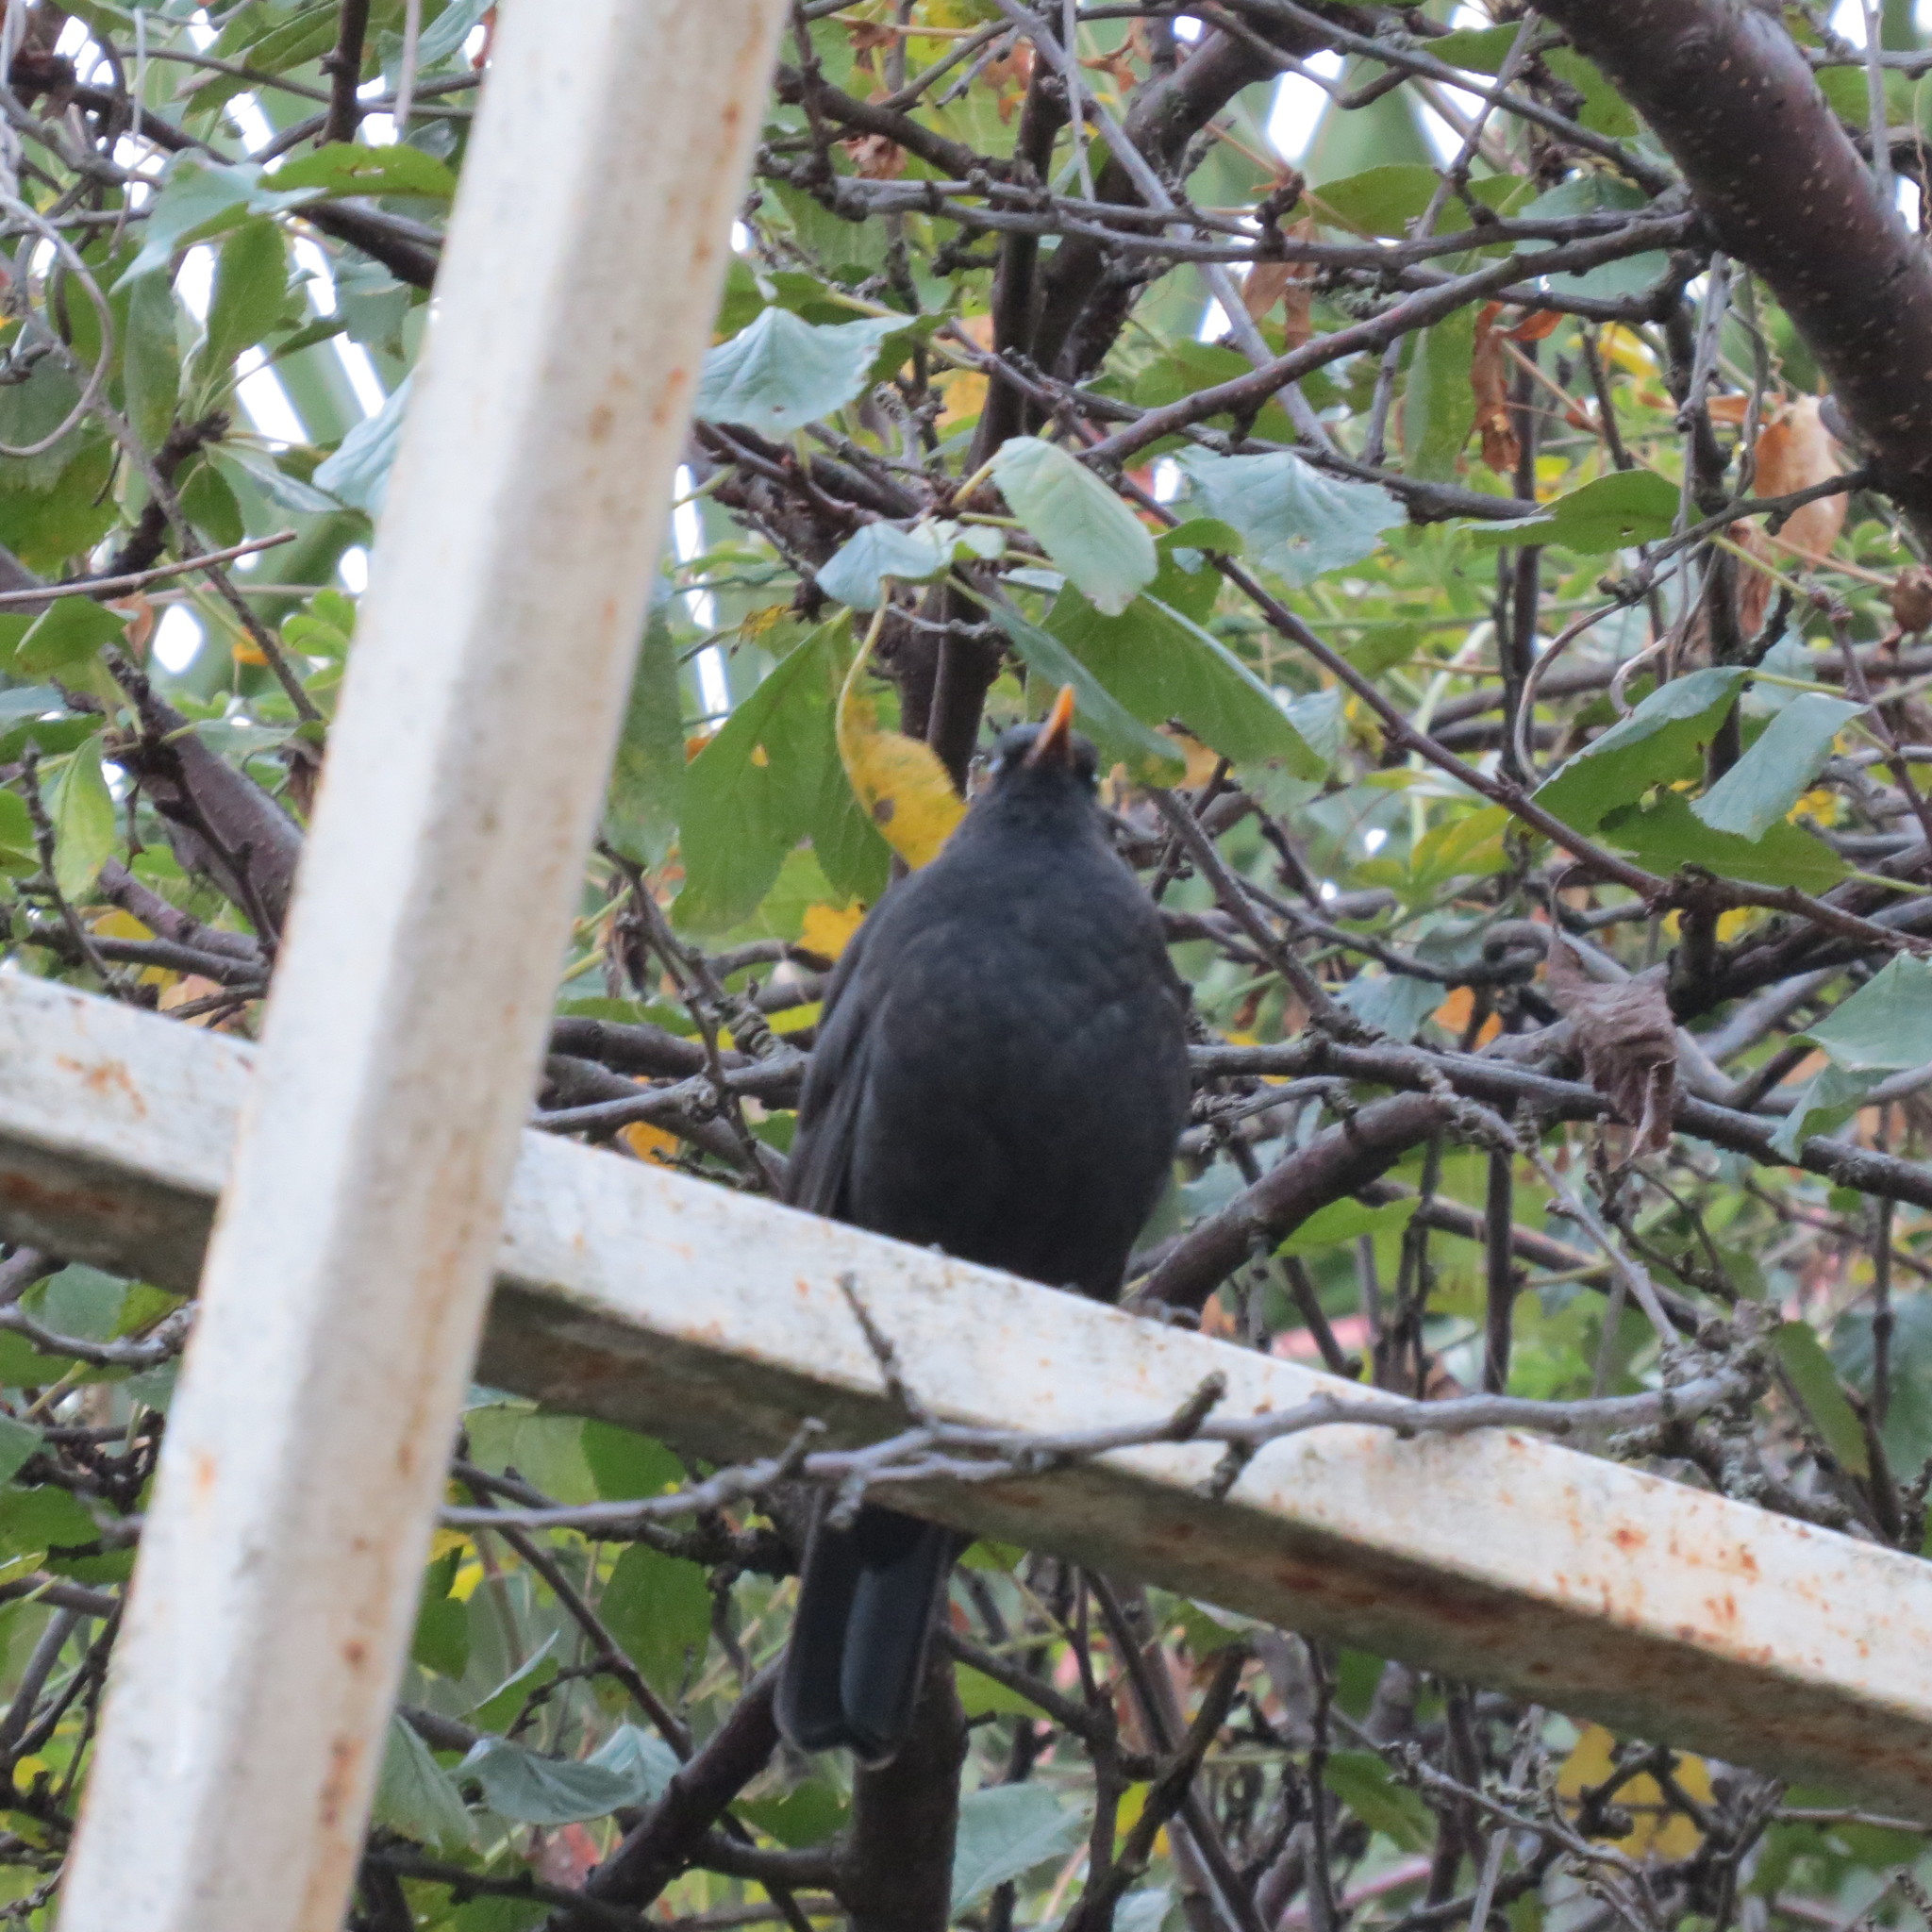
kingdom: Animalia
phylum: Chordata
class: Aves
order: Passeriformes
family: Turdidae
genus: Turdus
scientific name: Turdus merula
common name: Common blackbird
